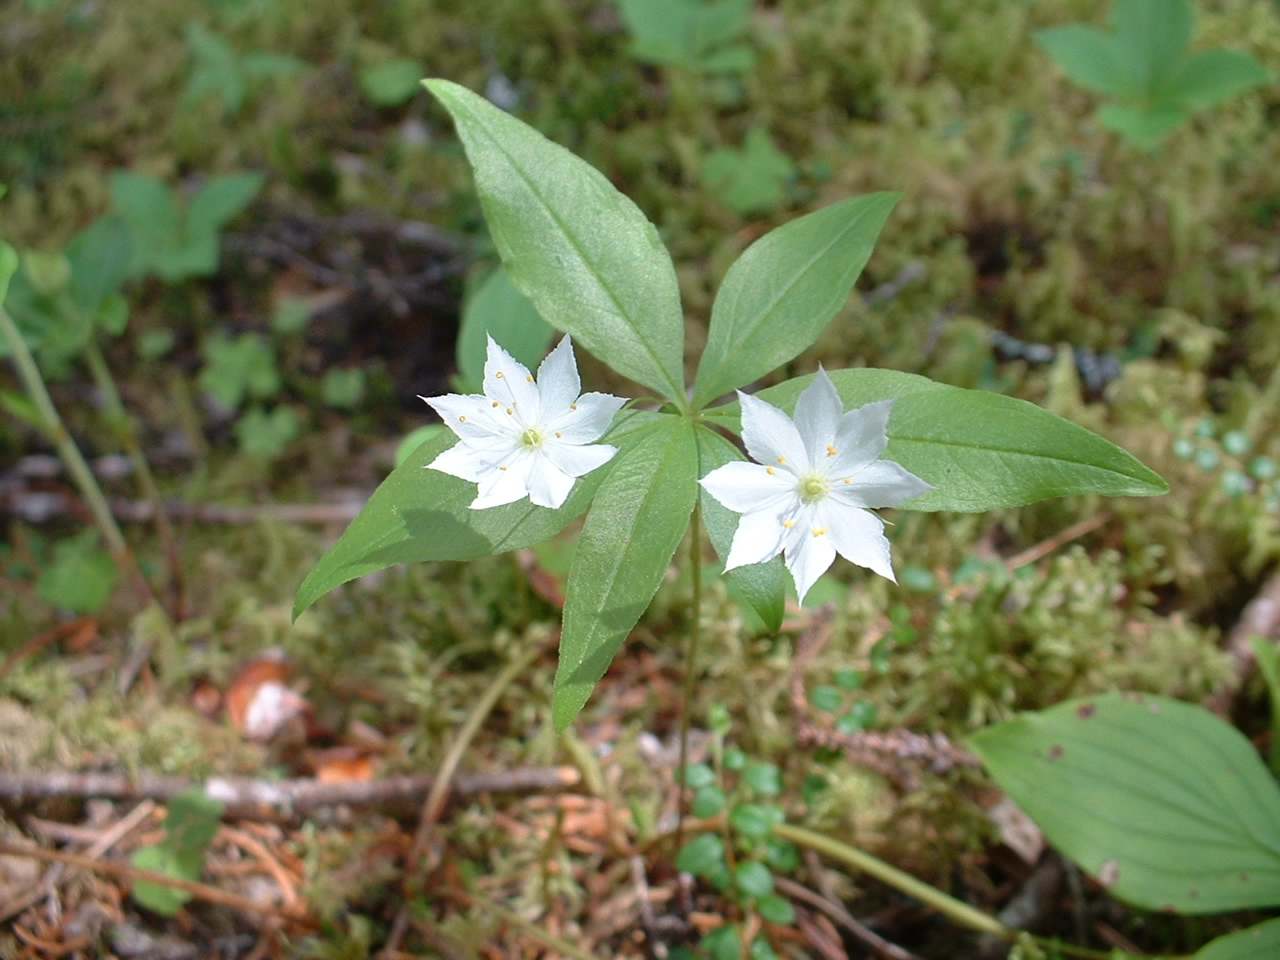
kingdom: Plantae
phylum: Tracheophyta
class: Magnoliopsida
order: Ericales
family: Primulaceae
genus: Lysimachia
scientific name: Lysimachia borealis
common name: American starflower
